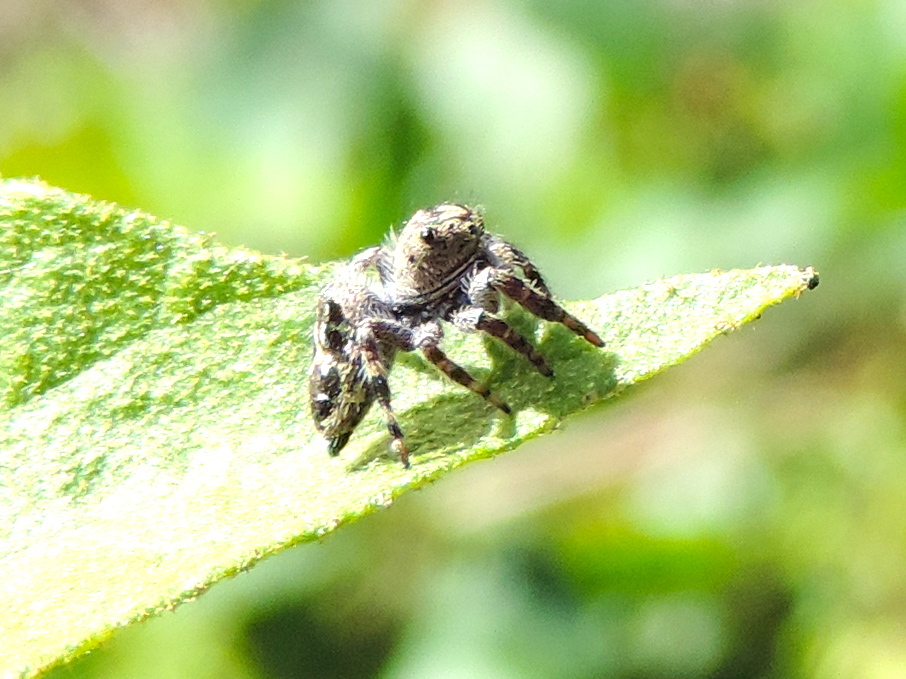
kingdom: Animalia
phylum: Arthropoda
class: Arachnida
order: Araneae
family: Salticidae
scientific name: Salticidae
